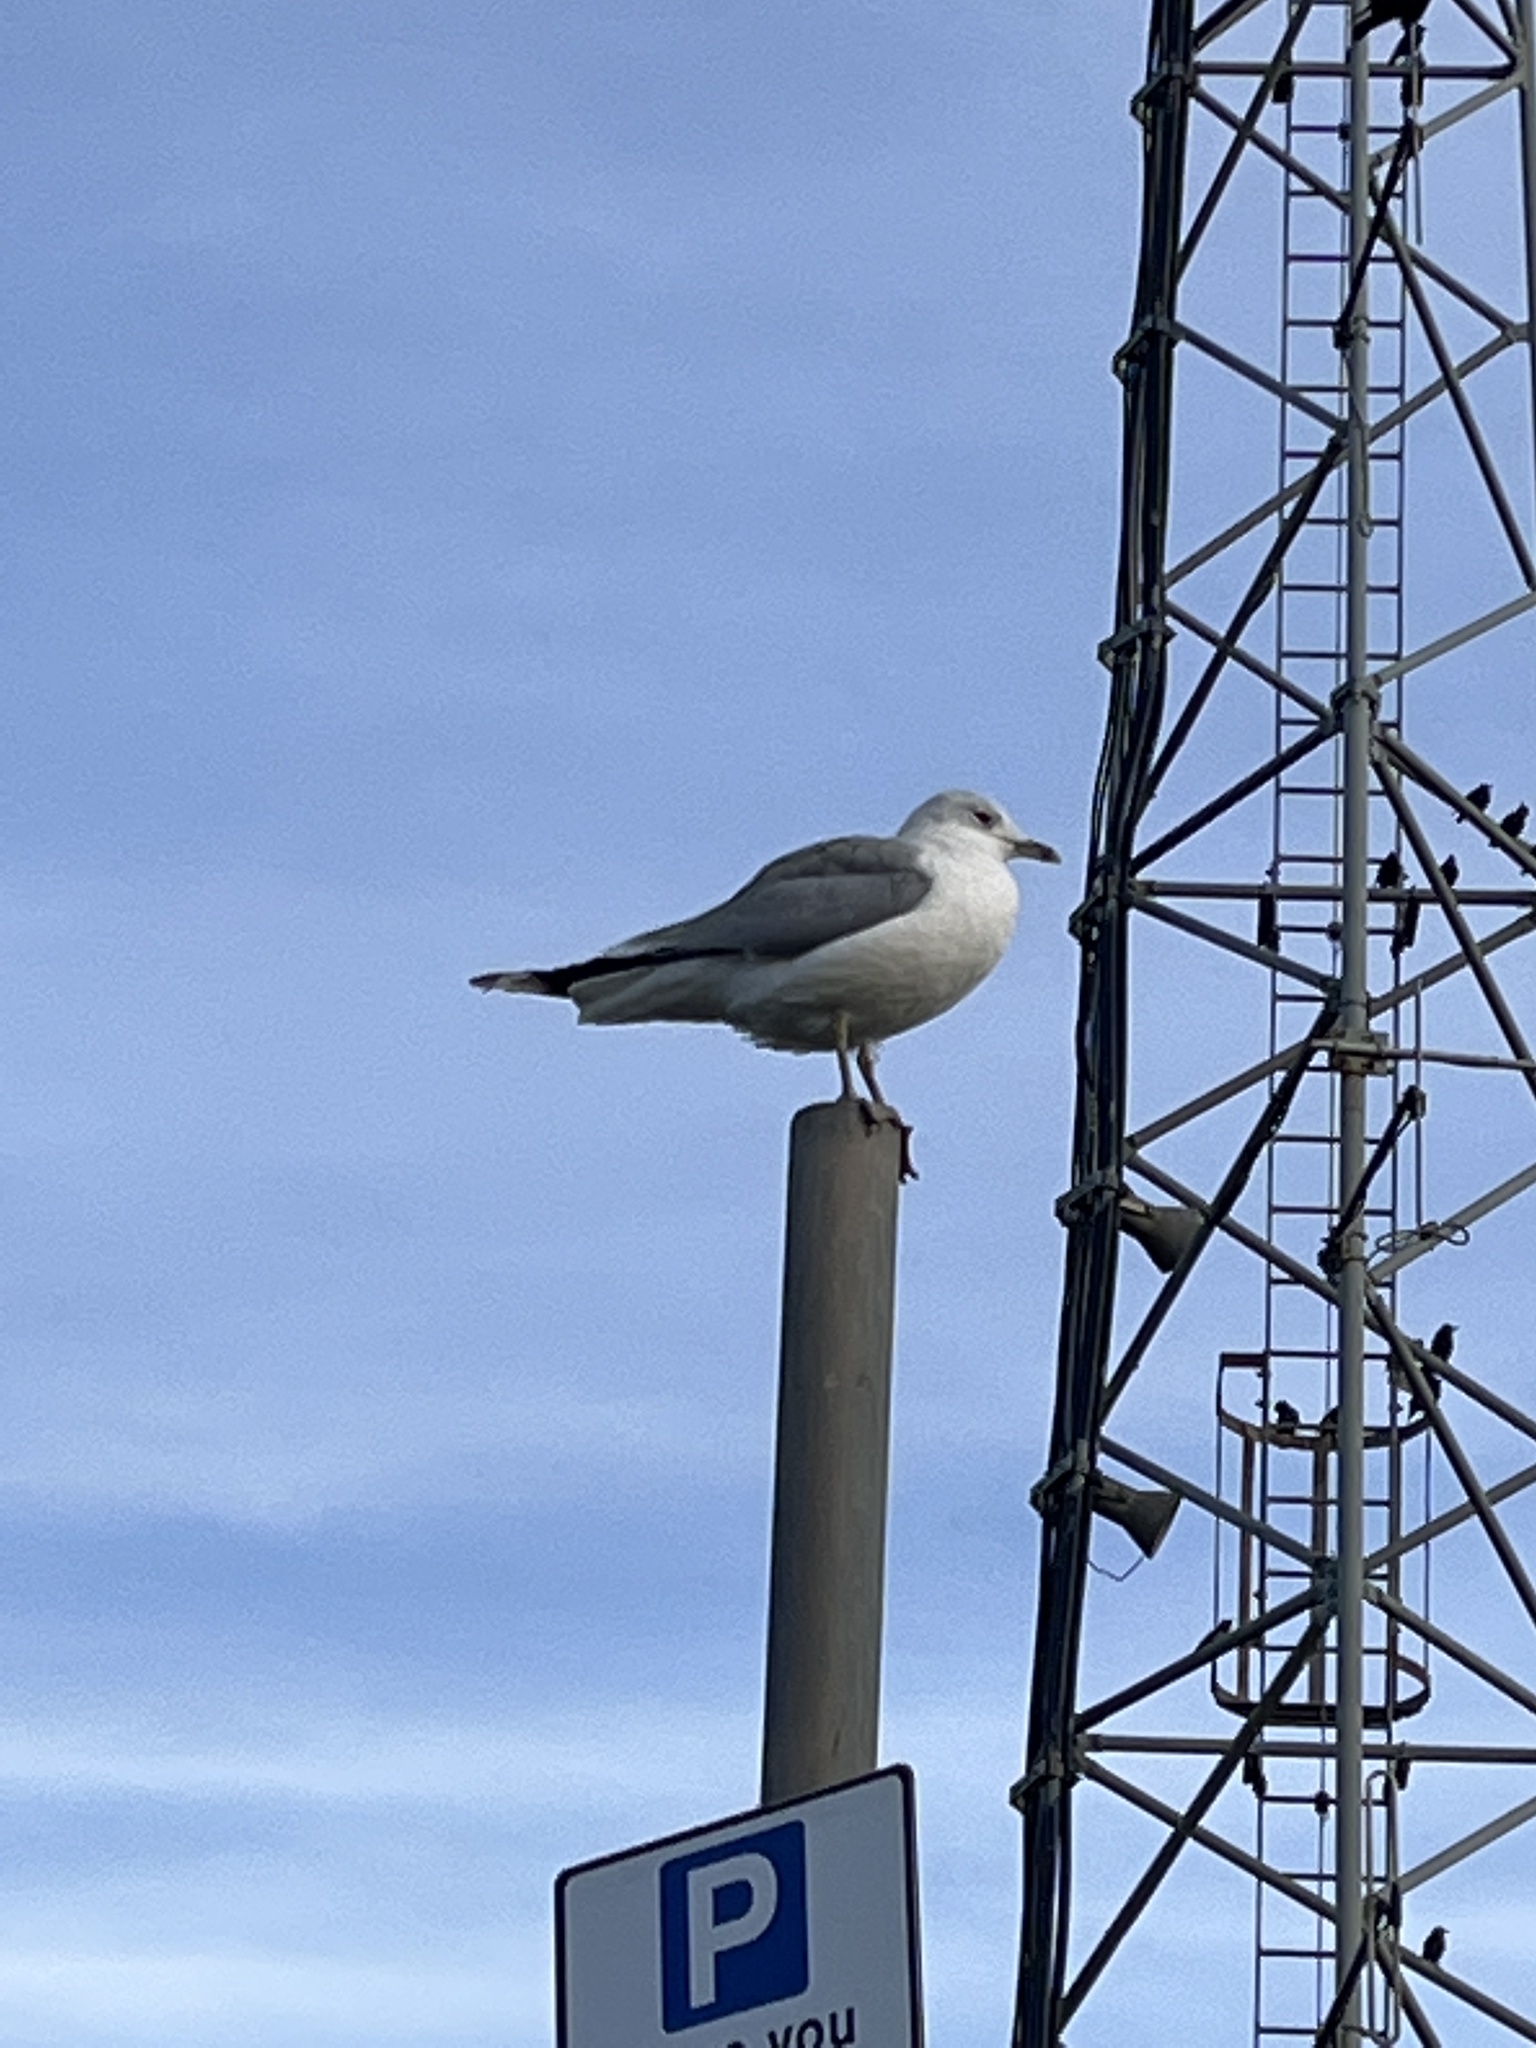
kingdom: Animalia
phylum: Chordata
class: Aves
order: Charadriiformes
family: Laridae
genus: Larus
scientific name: Larus canus
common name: Mew gull
